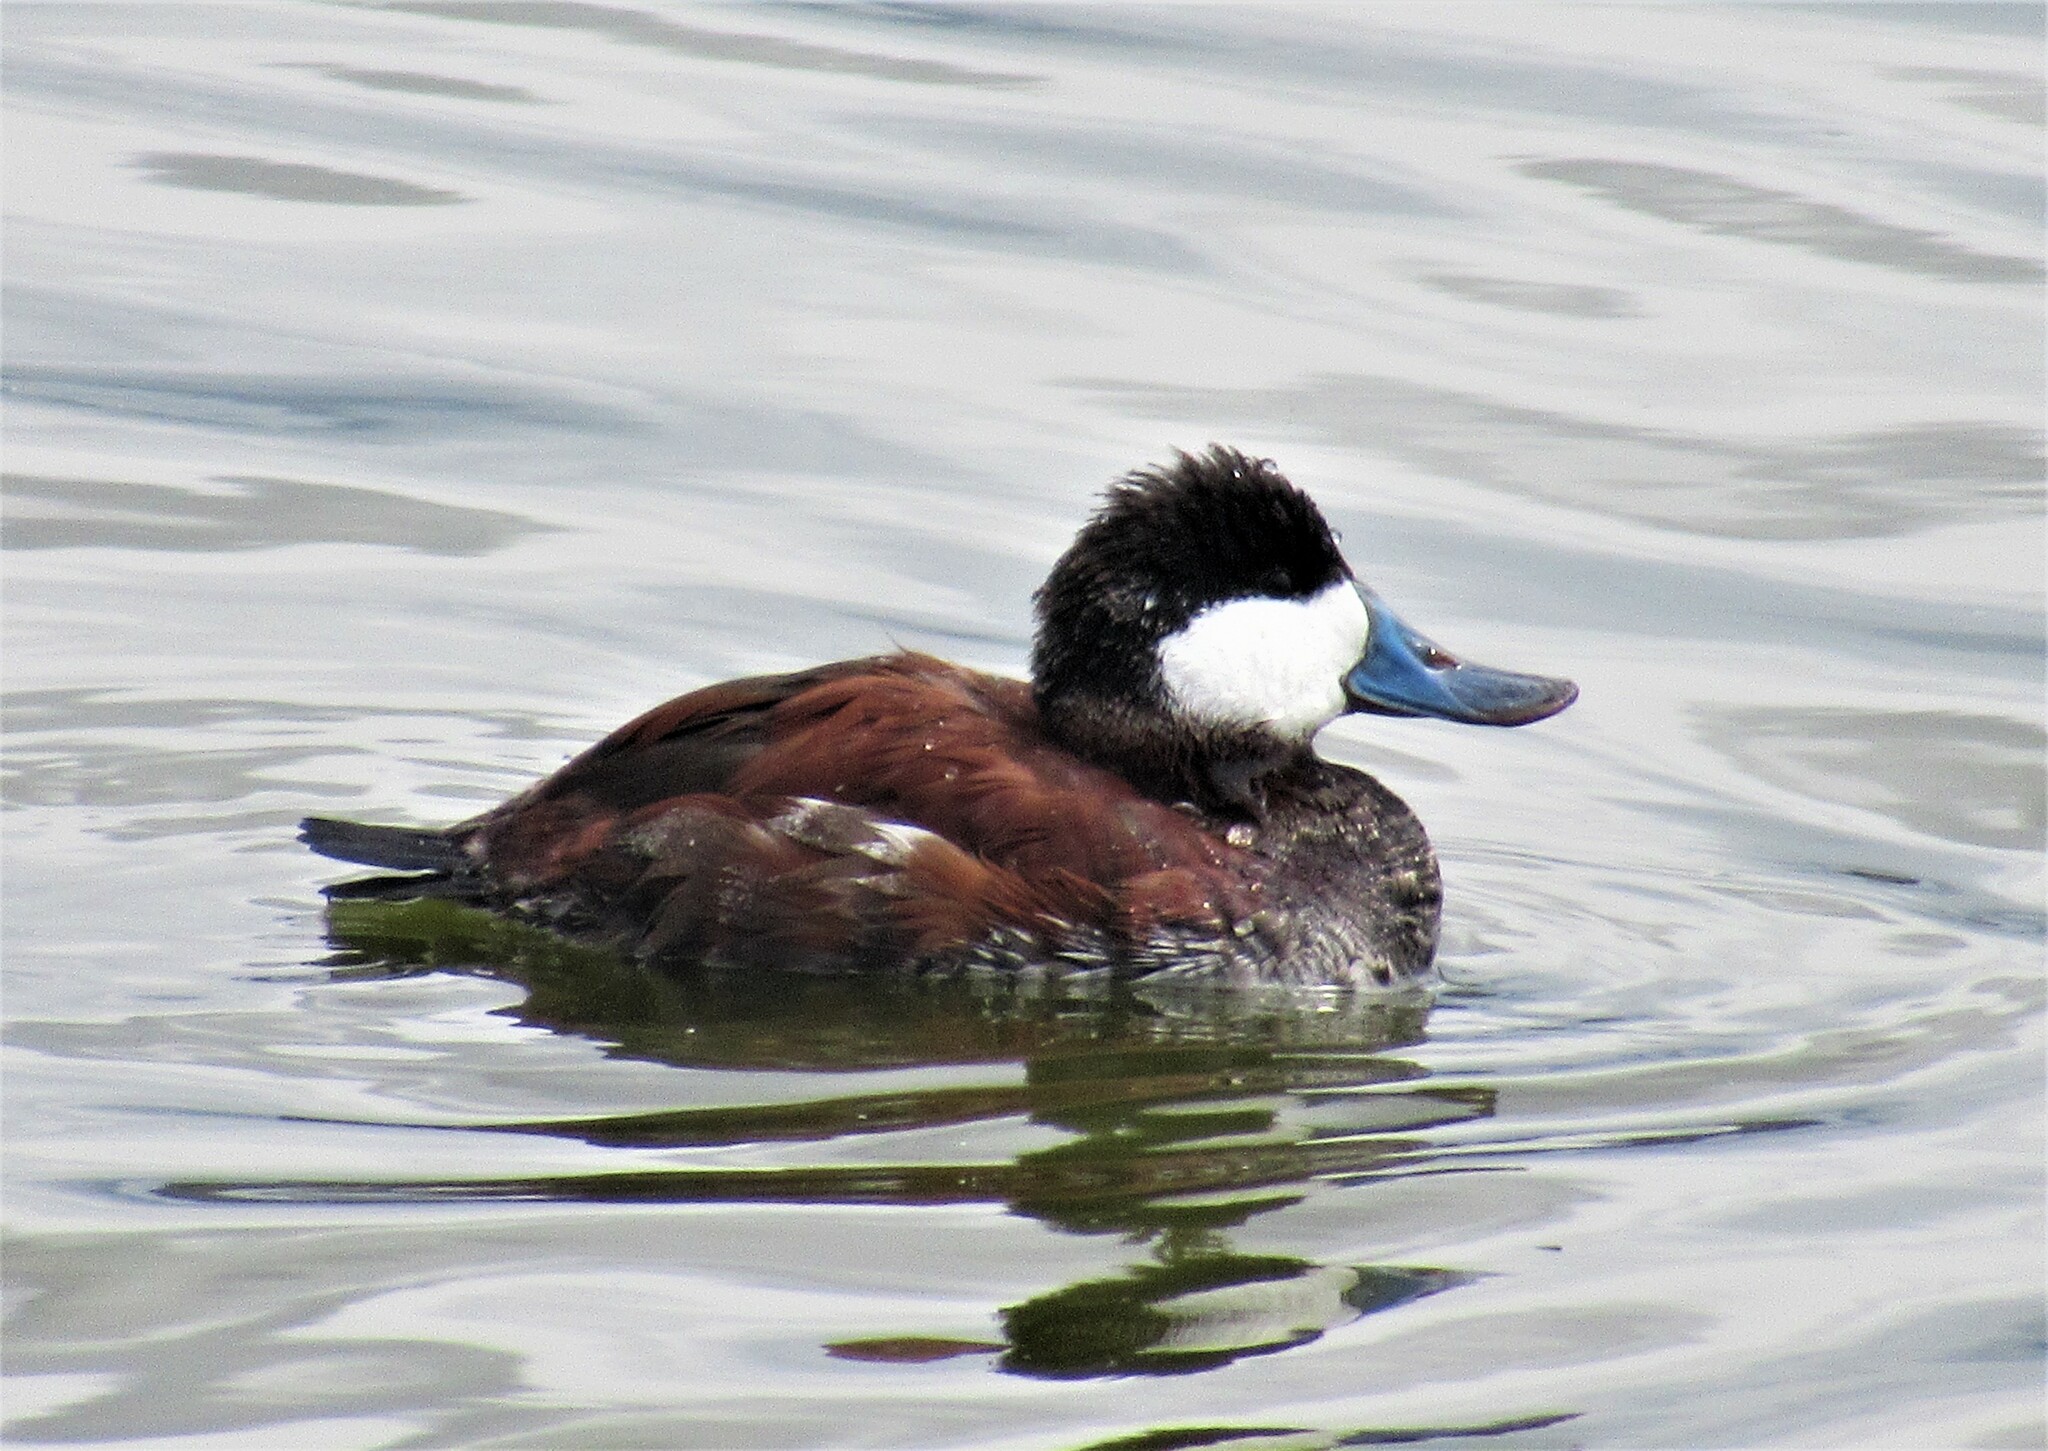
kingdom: Animalia
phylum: Chordata
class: Aves
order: Anseriformes
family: Anatidae
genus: Oxyura
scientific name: Oxyura jamaicensis
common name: Ruddy duck
